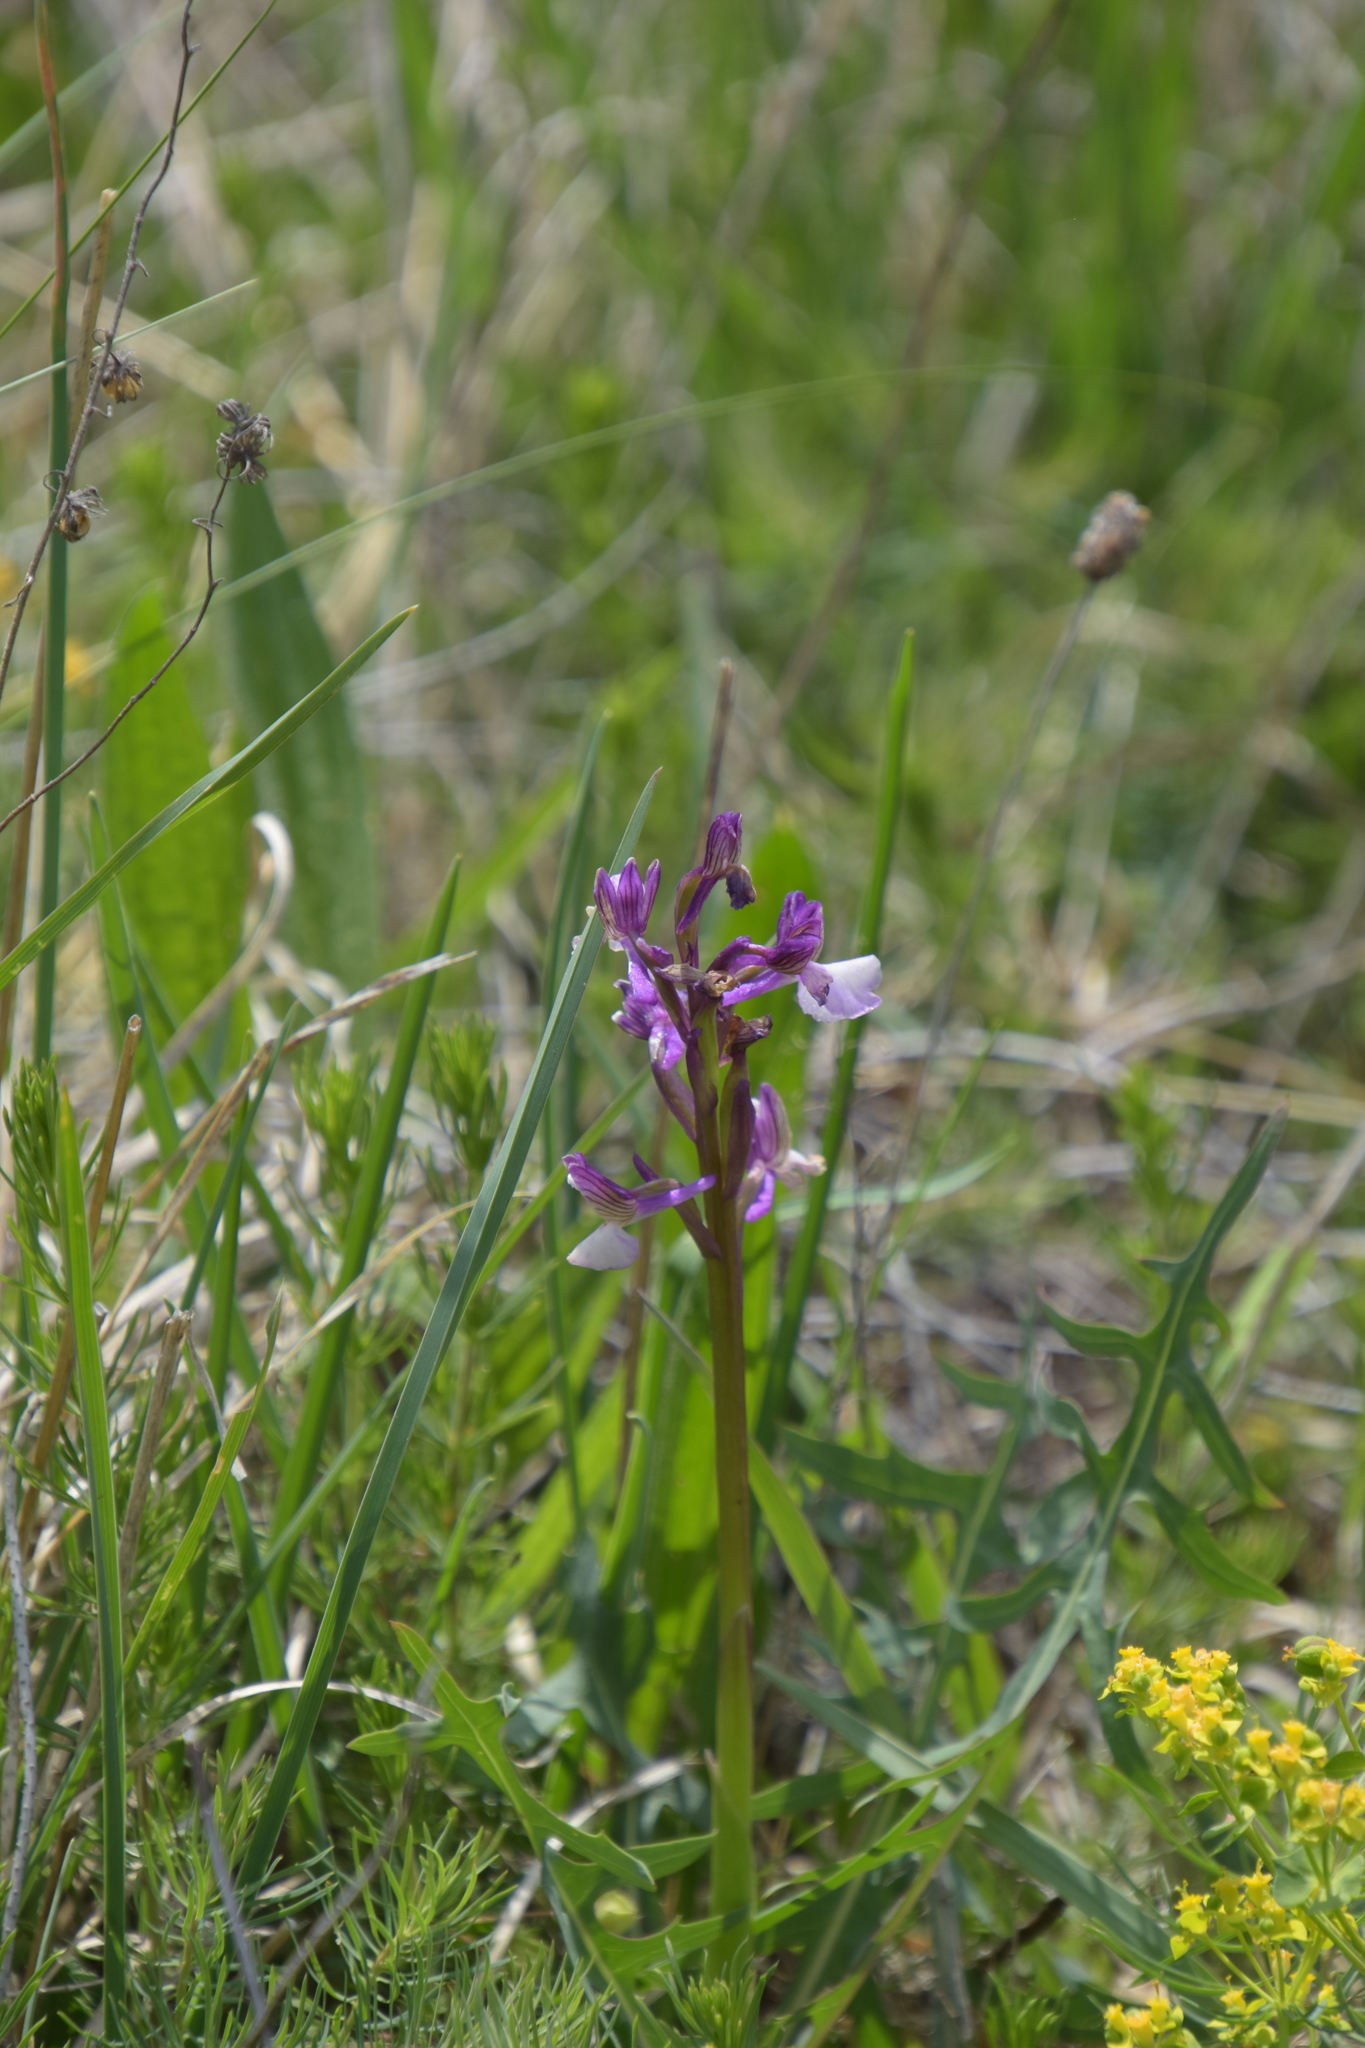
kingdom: Plantae
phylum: Tracheophyta
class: Liliopsida
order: Asparagales
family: Orchidaceae
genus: Anacamptis
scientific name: Anacamptis morio
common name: Green-winged orchid
